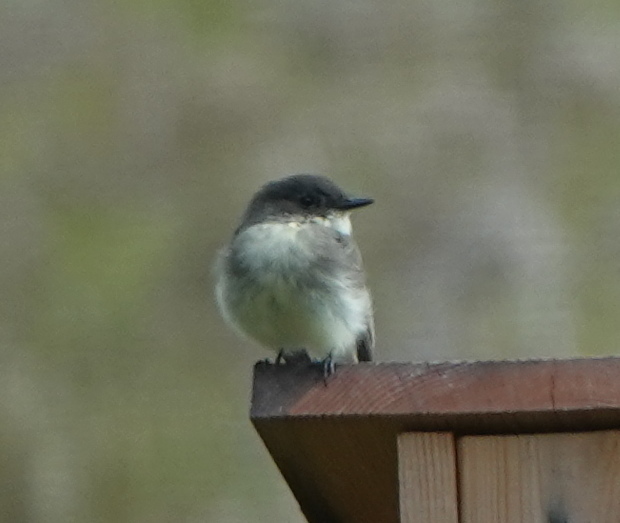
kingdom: Animalia
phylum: Chordata
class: Aves
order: Passeriformes
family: Tyrannidae
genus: Sayornis
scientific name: Sayornis phoebe
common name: Eastern phoebe
